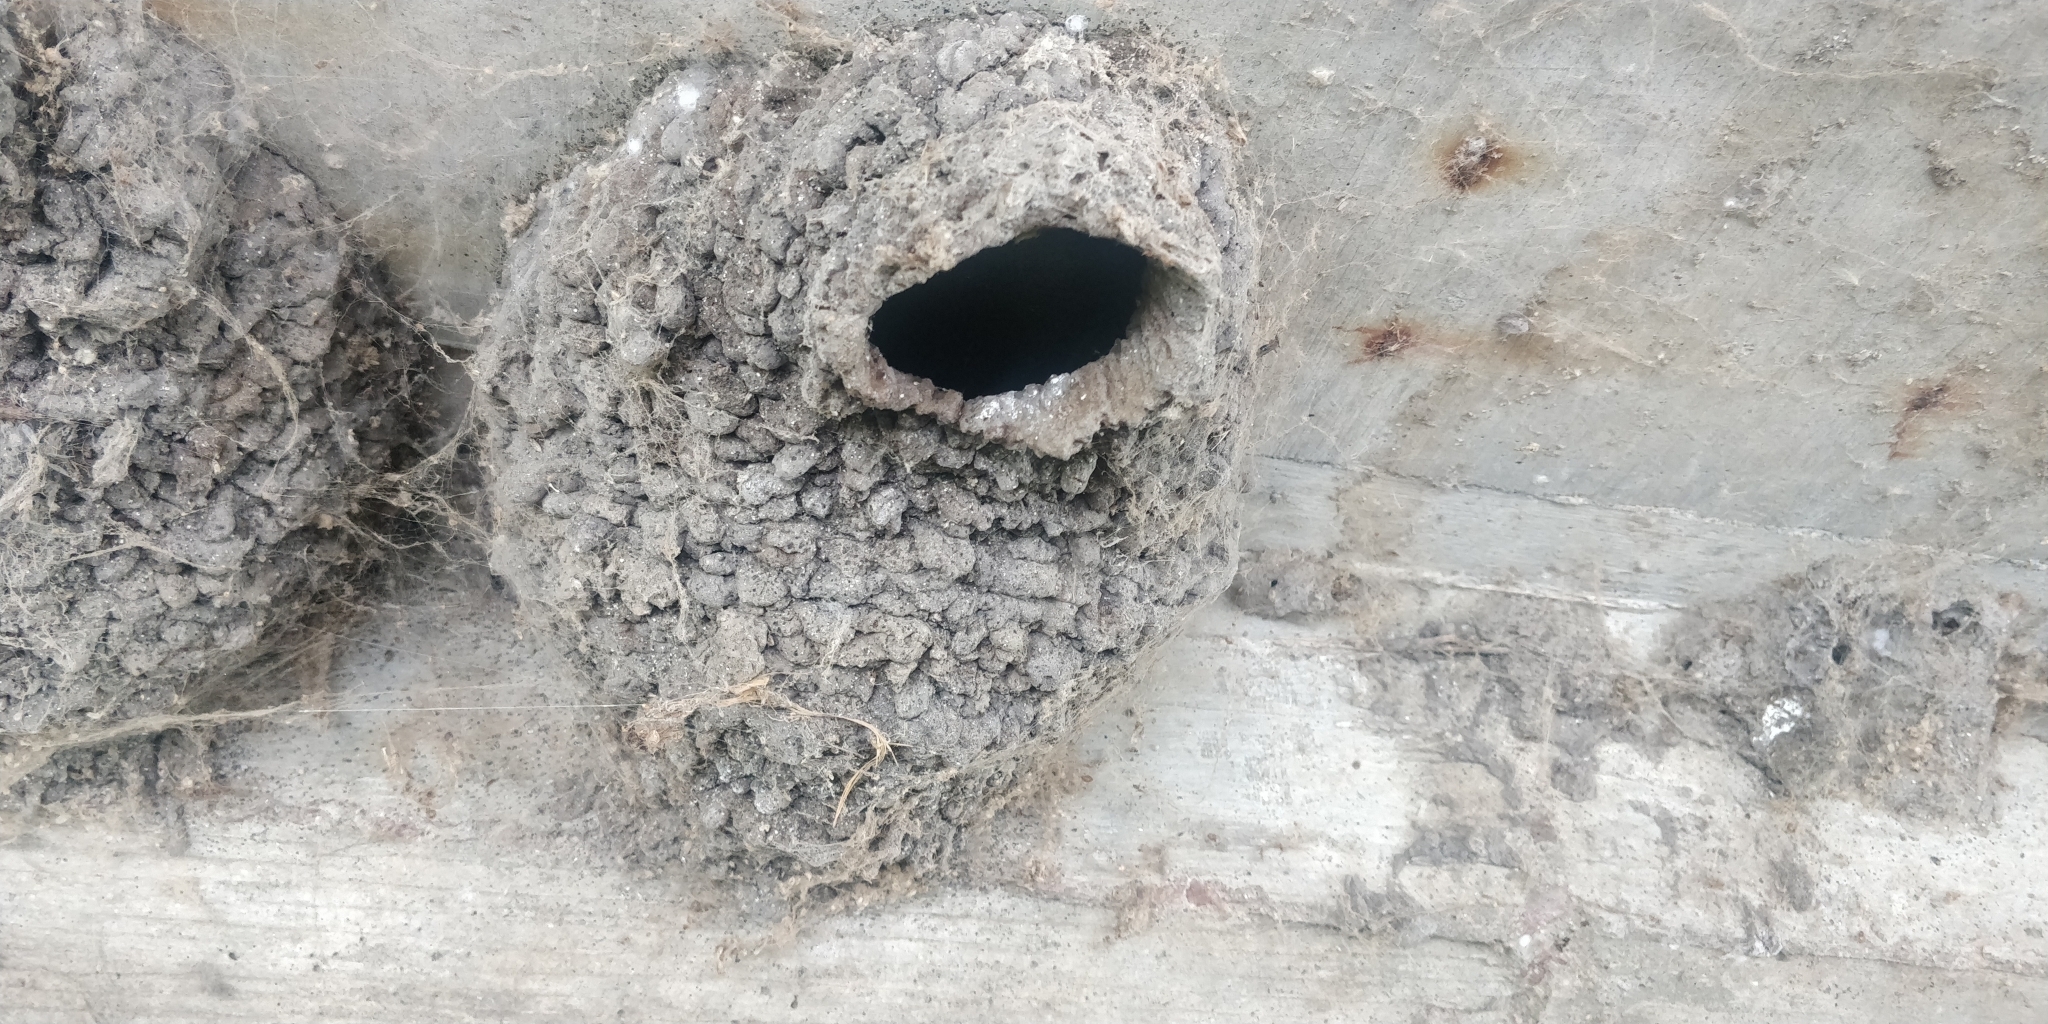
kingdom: Animalia
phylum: Chordata
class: Aves
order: Passeriformes
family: Hirundinidae
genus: Petrochelidon
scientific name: Petrochelidon pyrrhonota
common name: American cliff swallow
